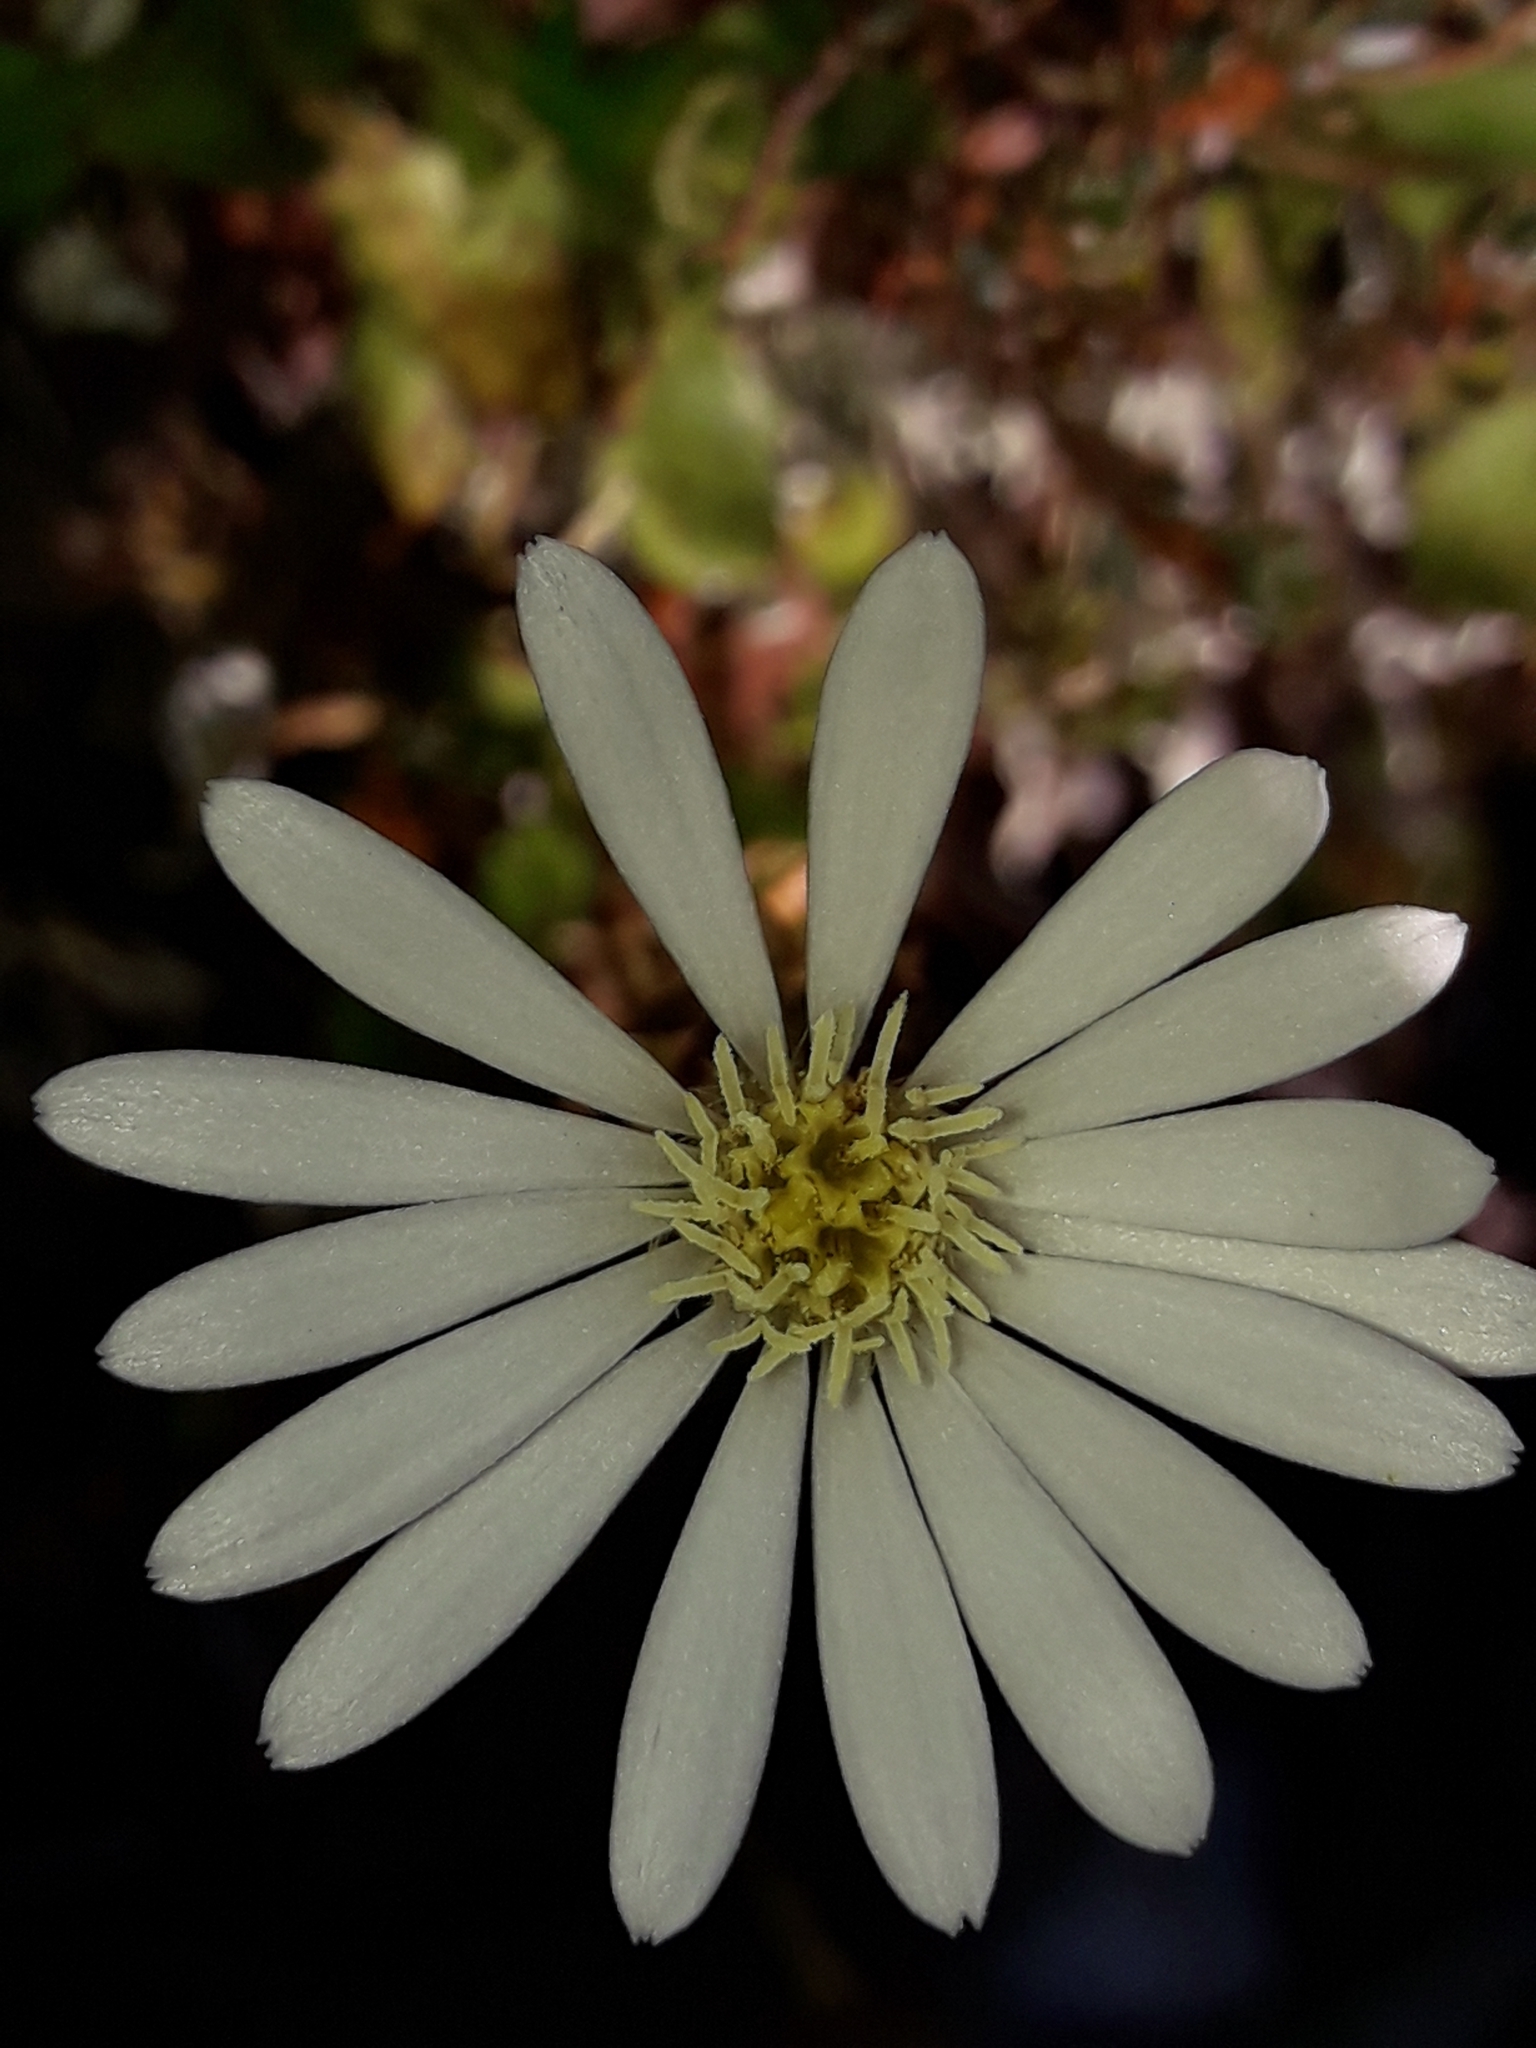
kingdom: Plantae
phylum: Tracheophyta
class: Magnoliopsida
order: Asterales
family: Asteraceae
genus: Celmisia
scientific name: Celmisia glandulosa
